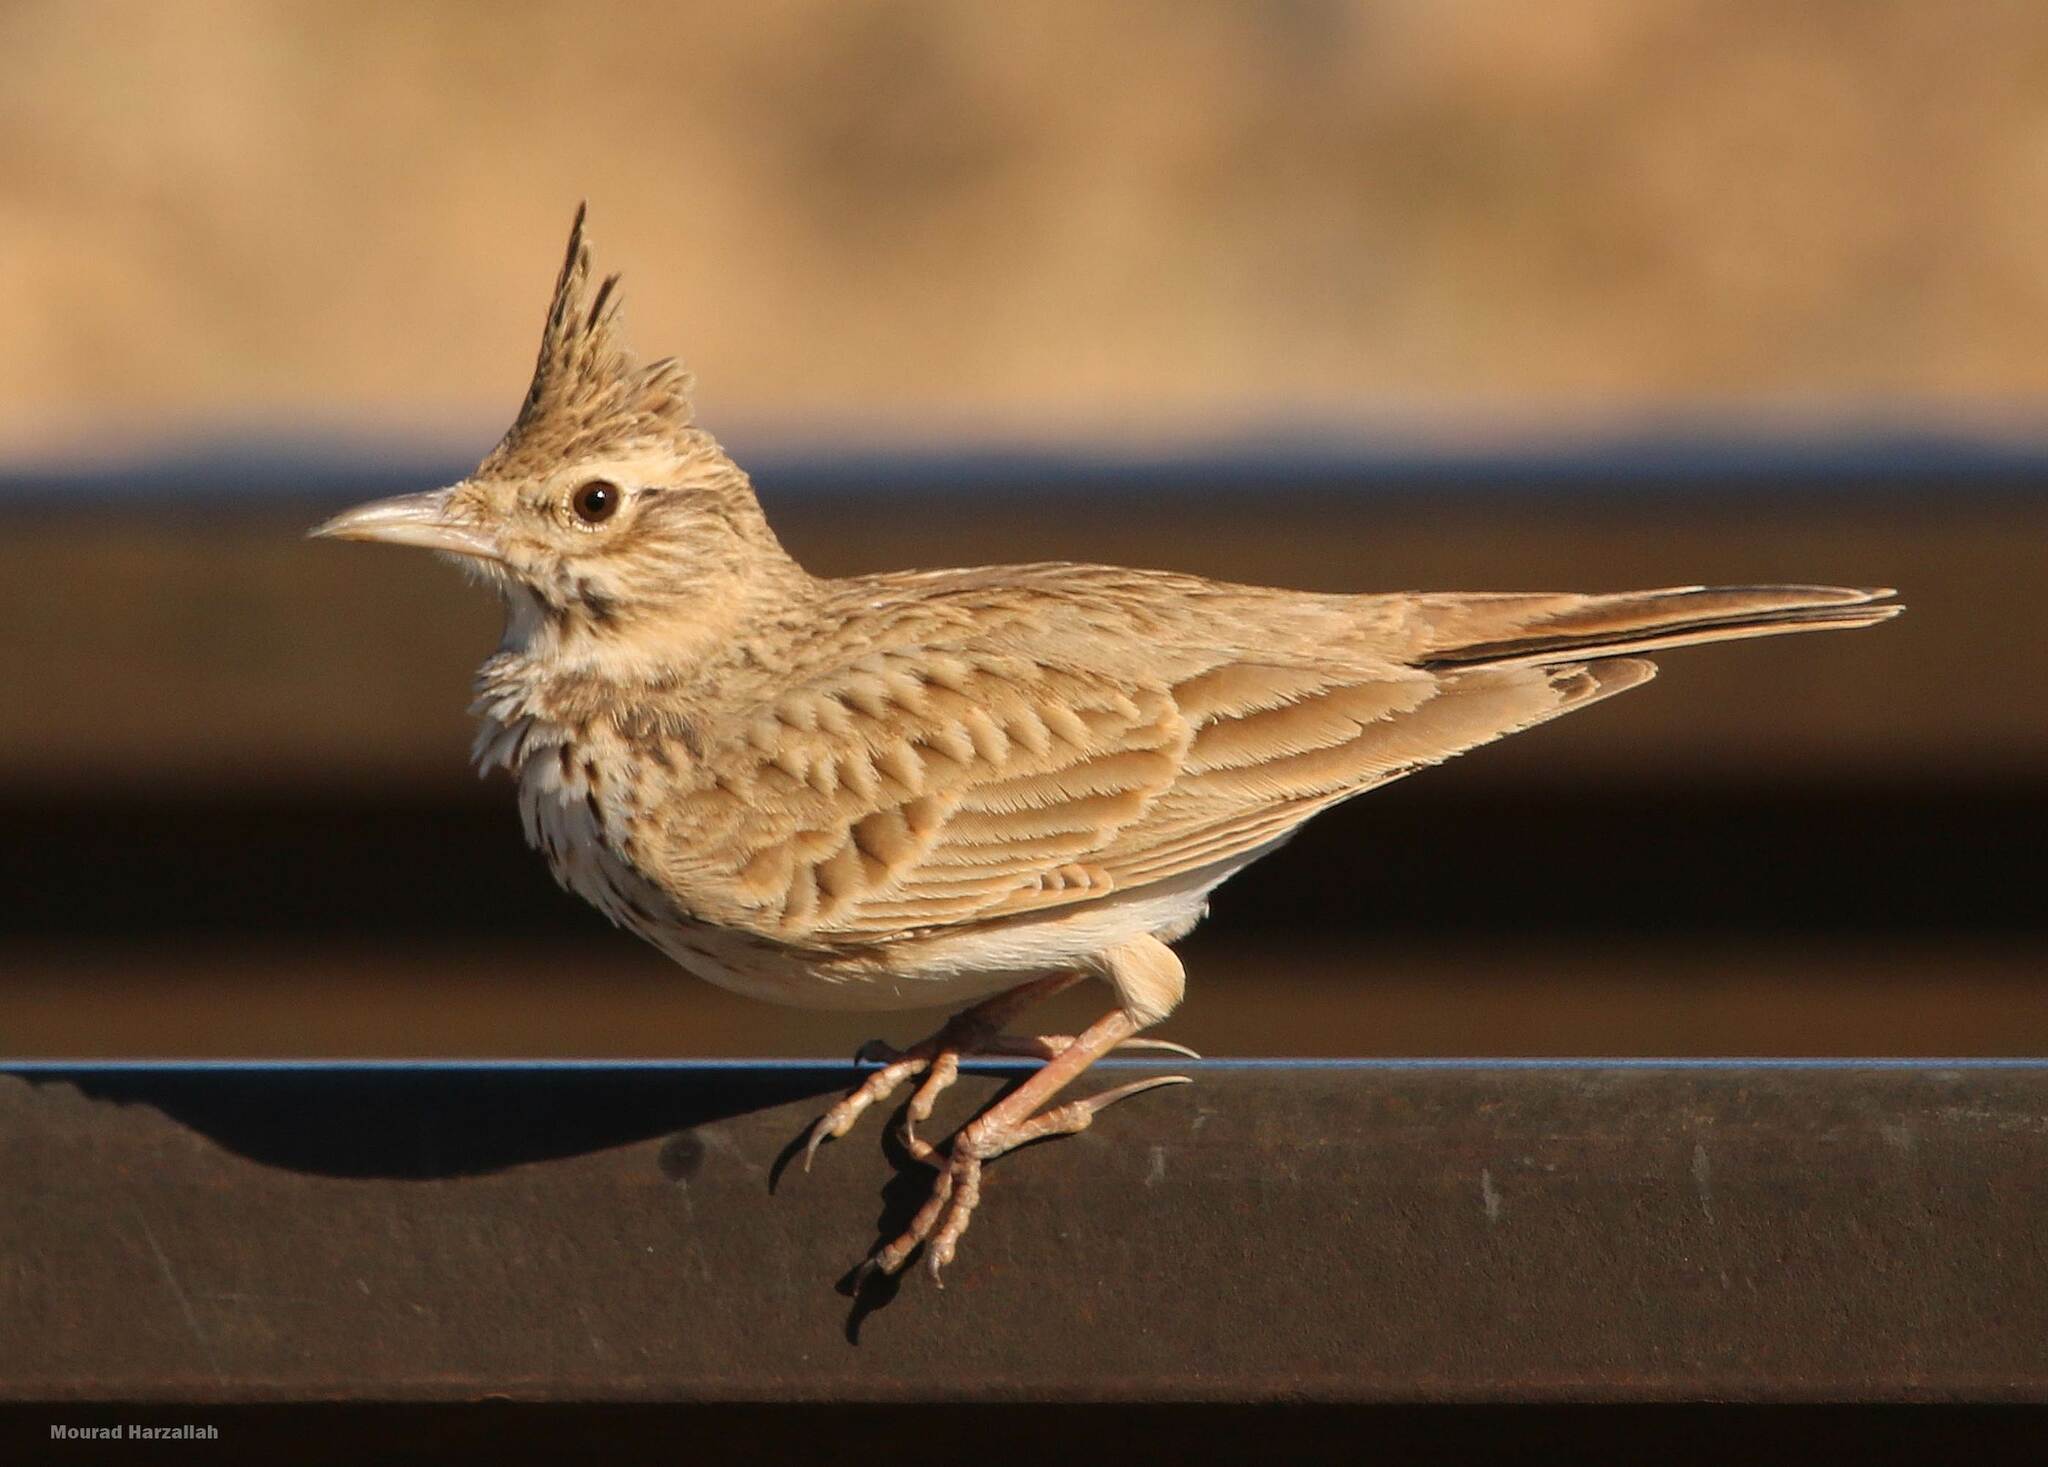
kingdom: Animalia
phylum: Chordata
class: Aves
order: Passeriformes
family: Alaudidae
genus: Galerida
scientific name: Galerida cristata
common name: Crested lark
